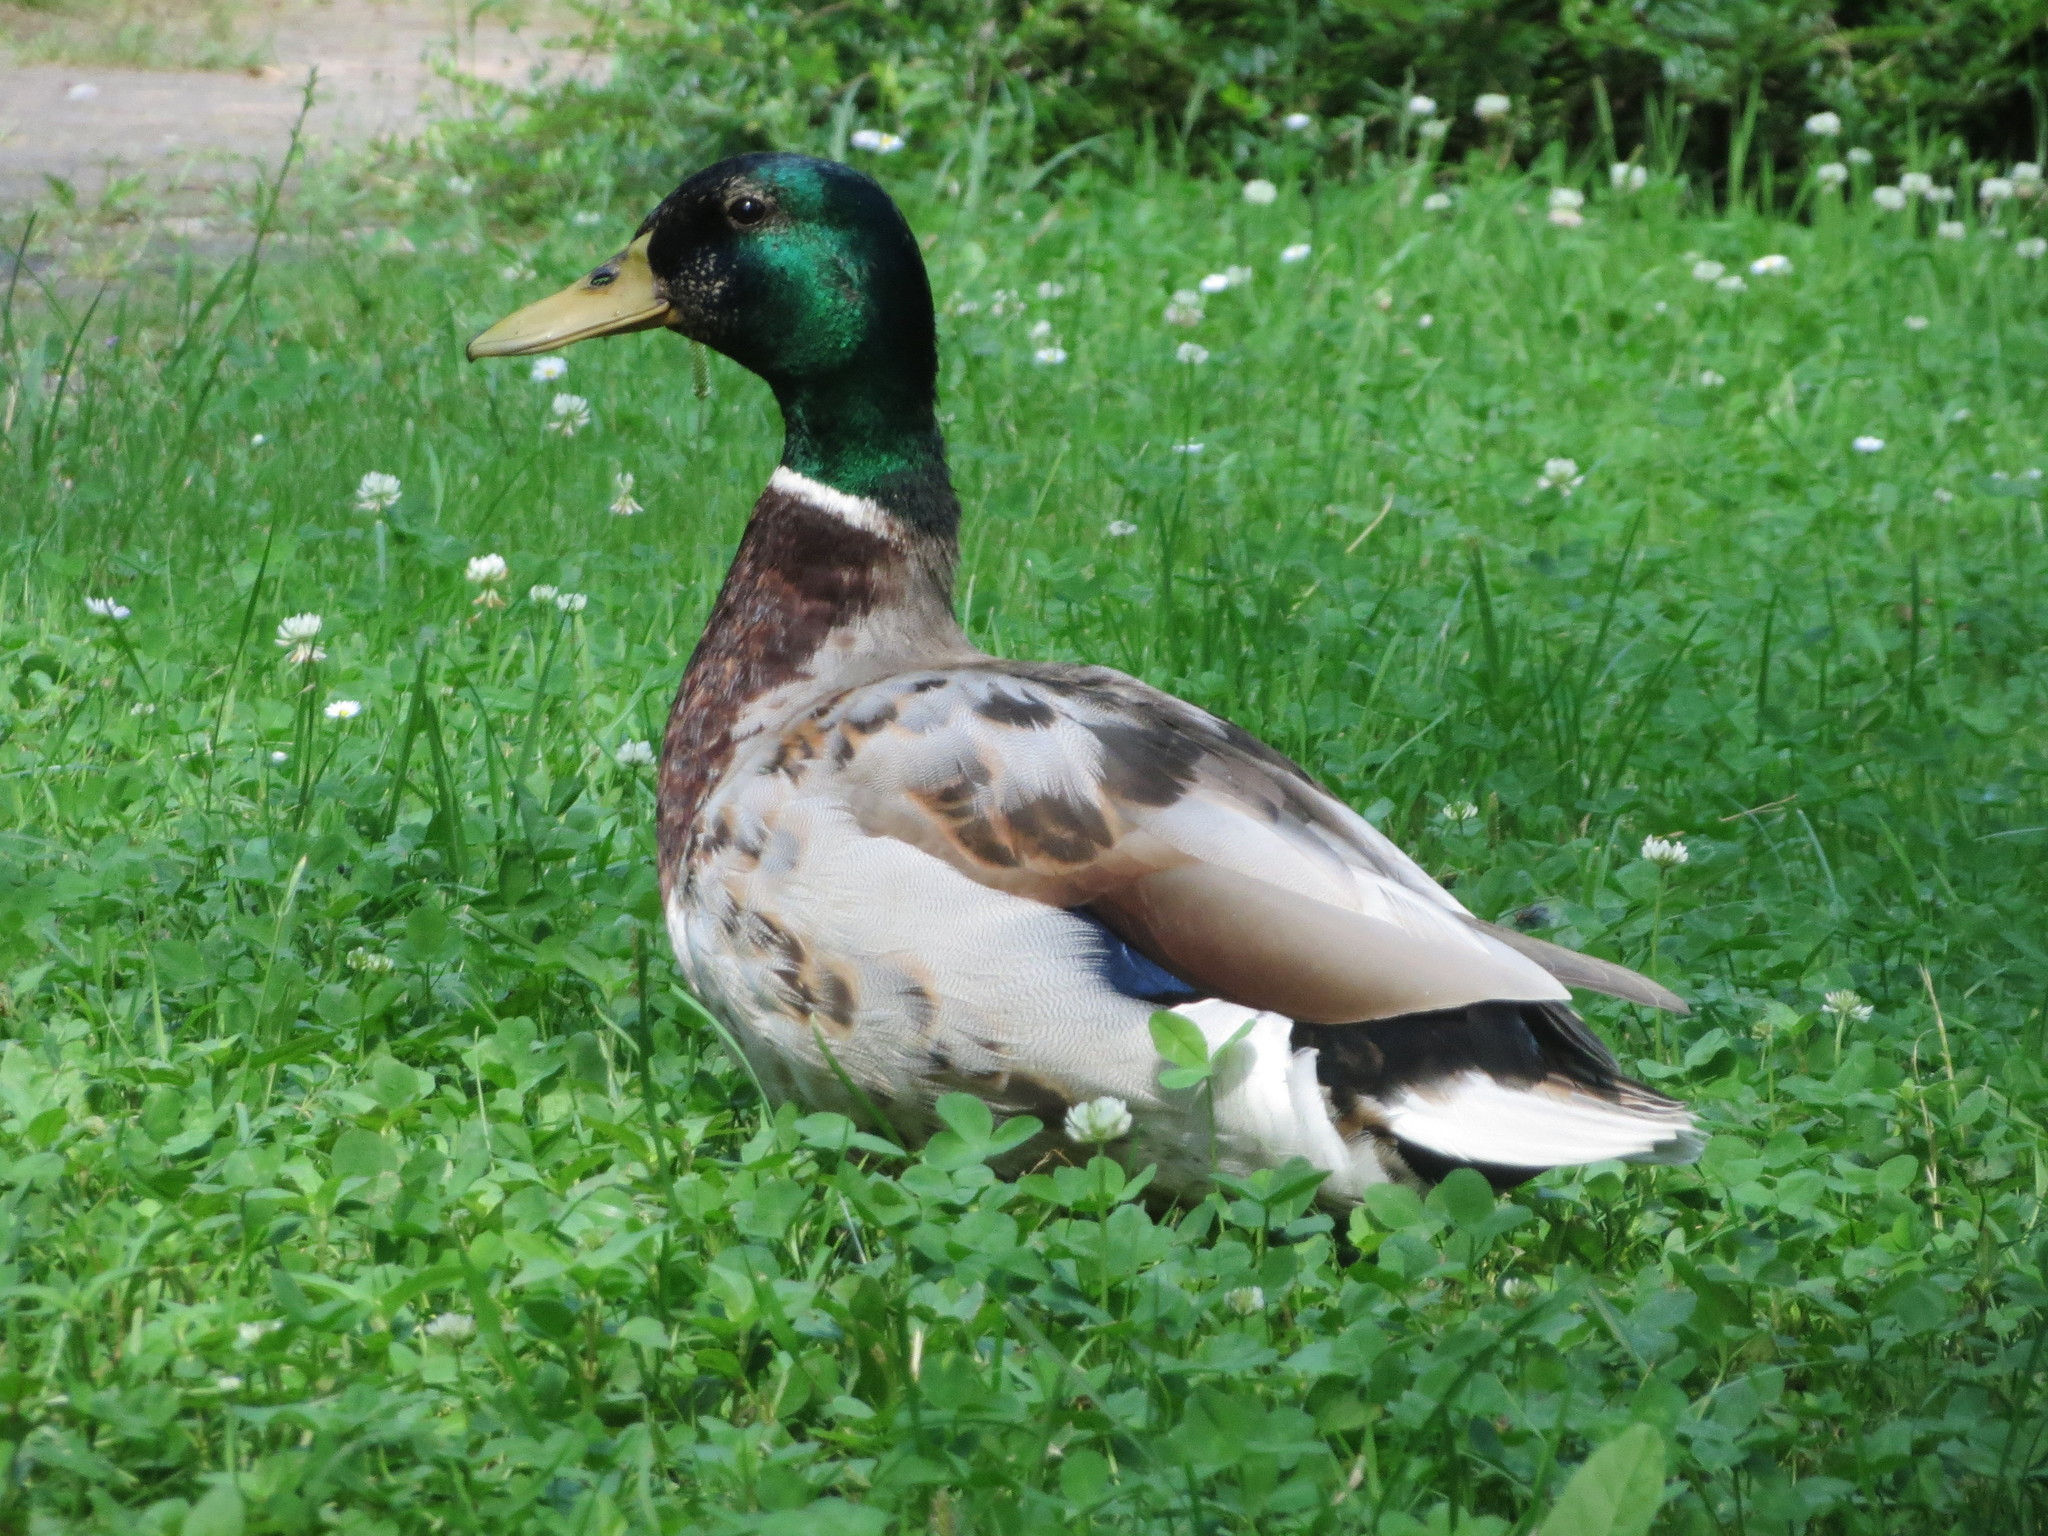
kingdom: Animalia
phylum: Chordata
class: Aves
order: Anseriformes
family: Anatidae
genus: Anas
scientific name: Anas platyrhynchos
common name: Mallard
